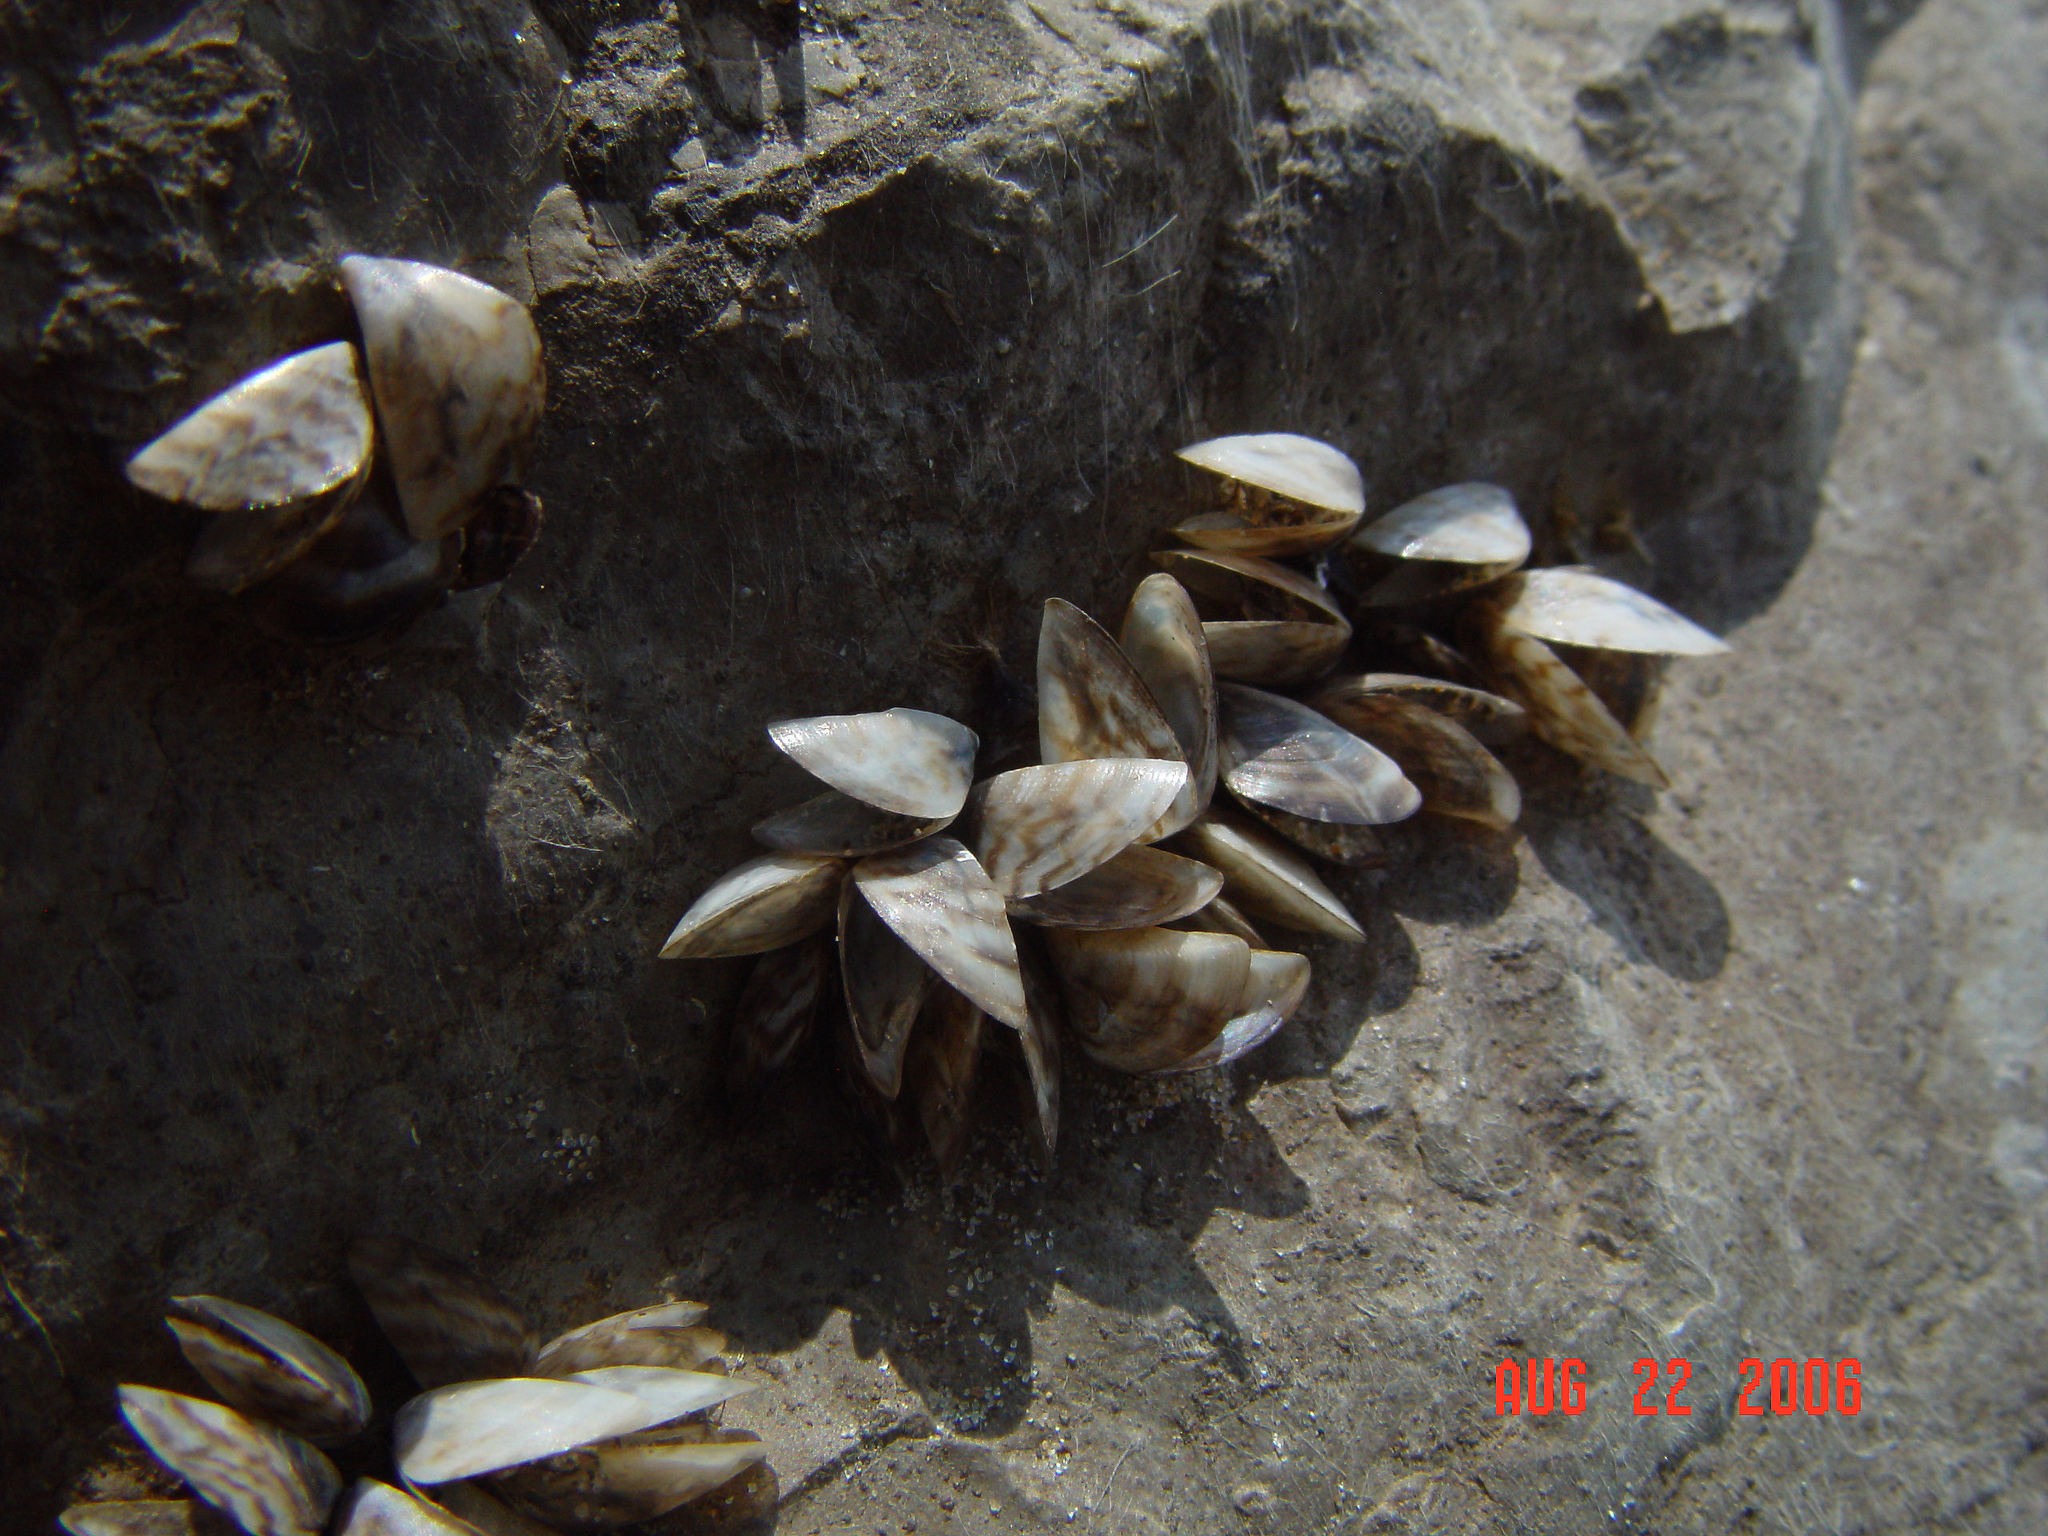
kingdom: Animalia
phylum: Mollusca
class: Bivalvia
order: Myida
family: Dreissenidae
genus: Dreissena
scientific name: Dreissena polymorpha
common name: Zebra mussel
